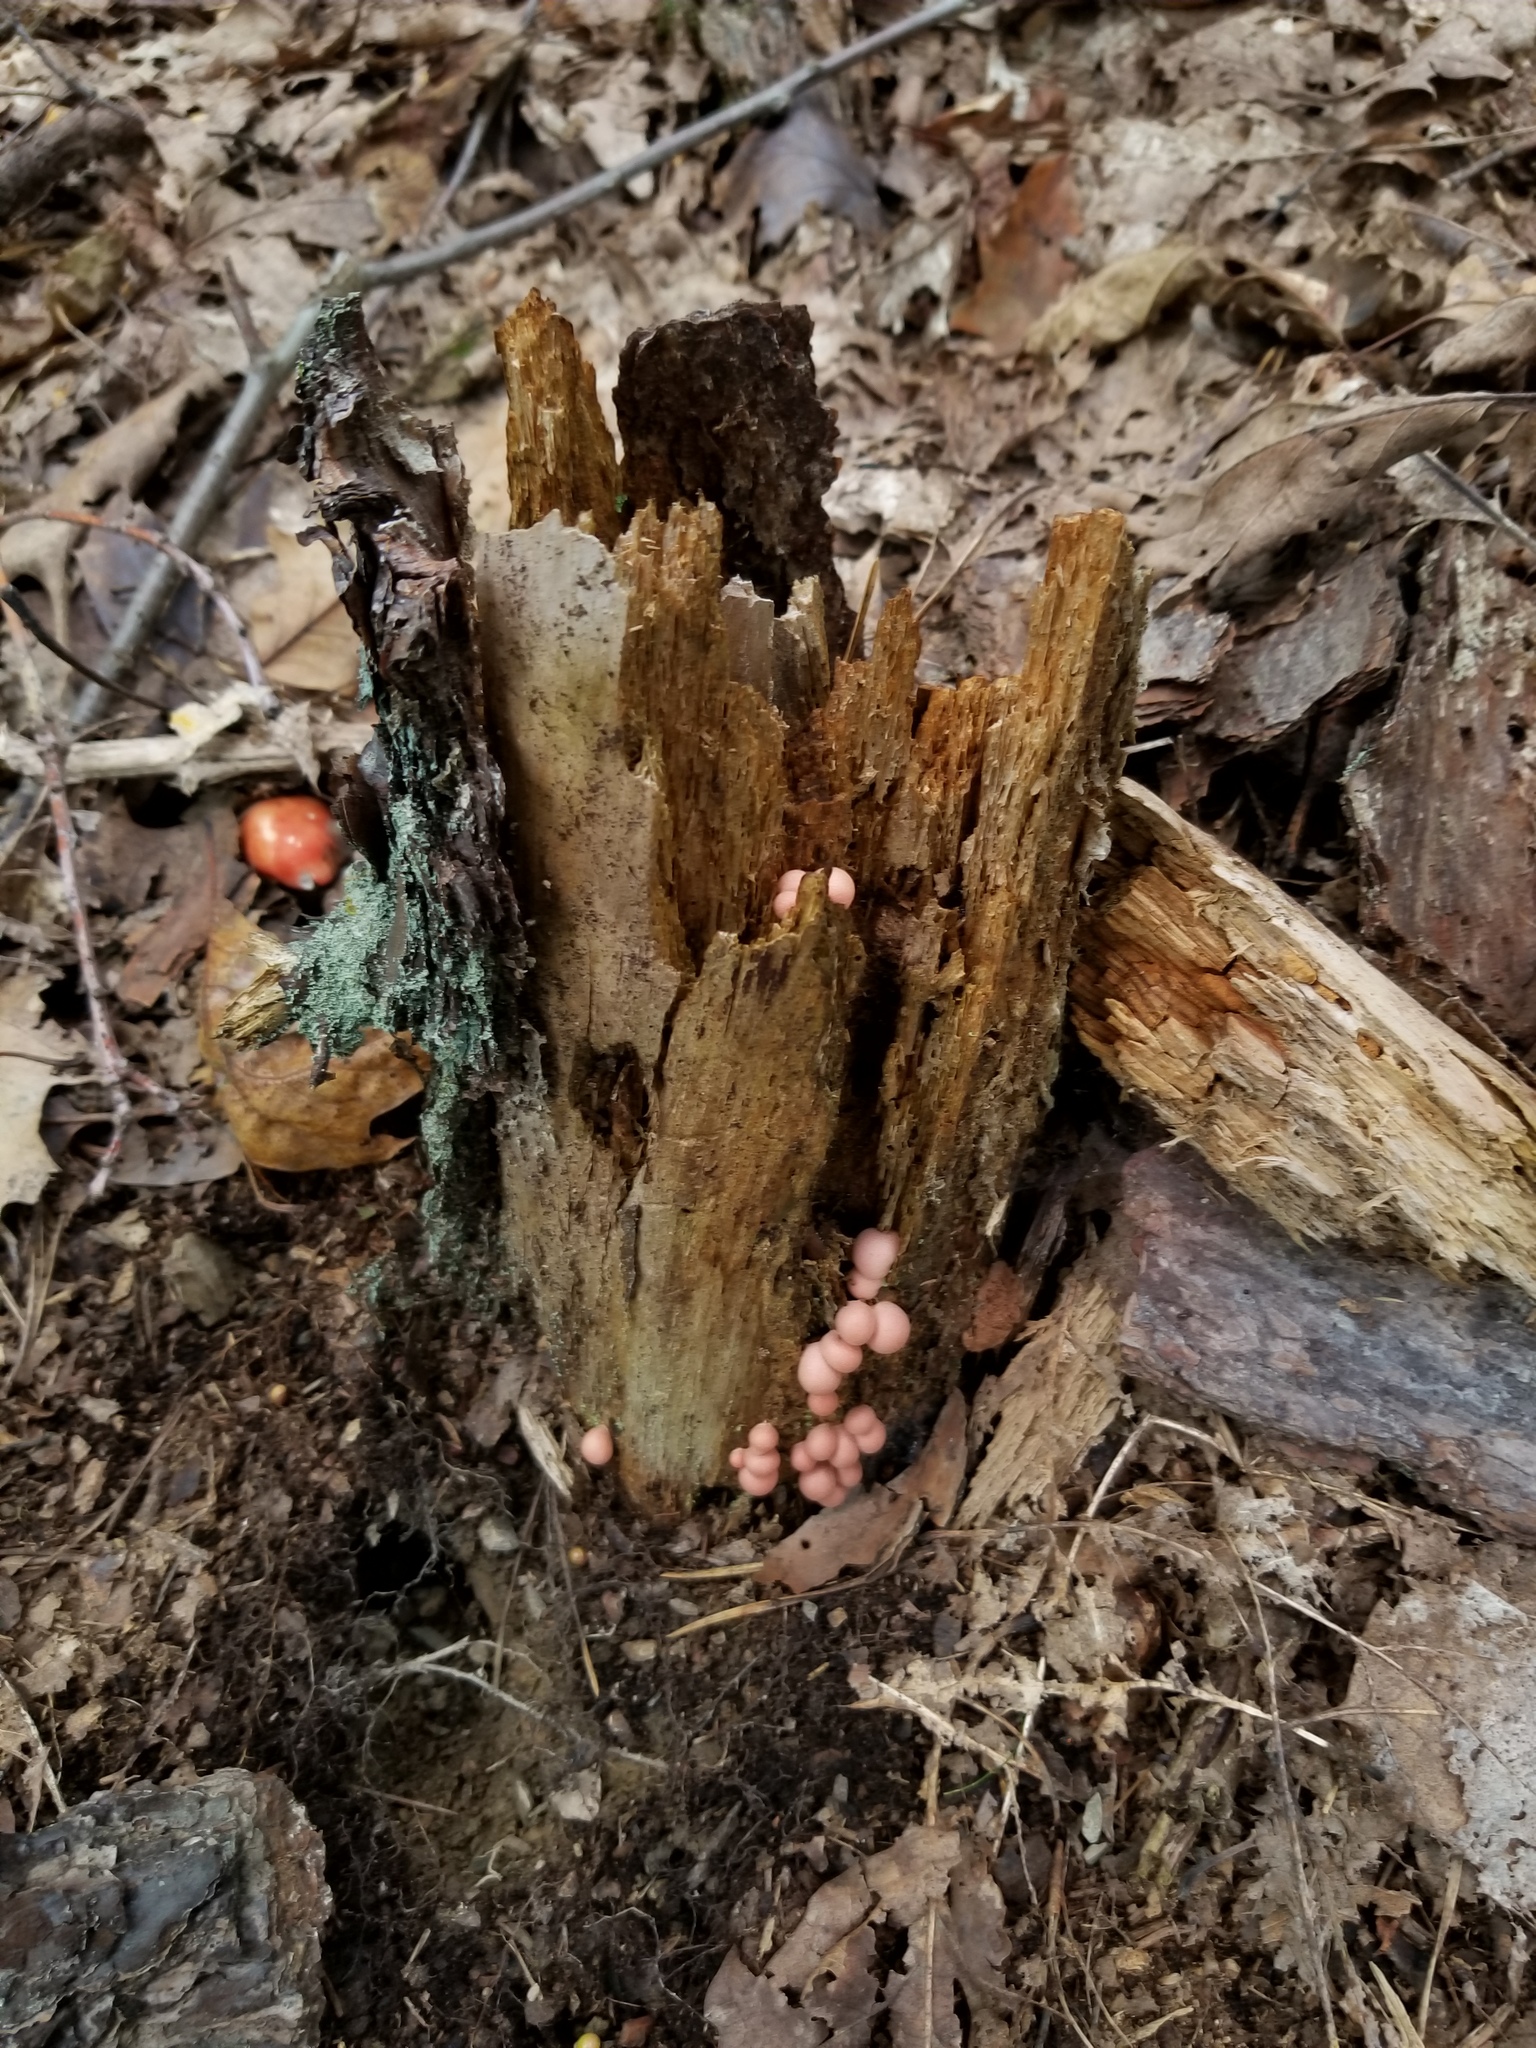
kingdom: Protozoa
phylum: Mycetozoa
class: Myxomycetes
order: Cribrariales
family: Tubiferaceae
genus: Lycogala
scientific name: Lycogala epidendrum
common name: Wolf's milk
